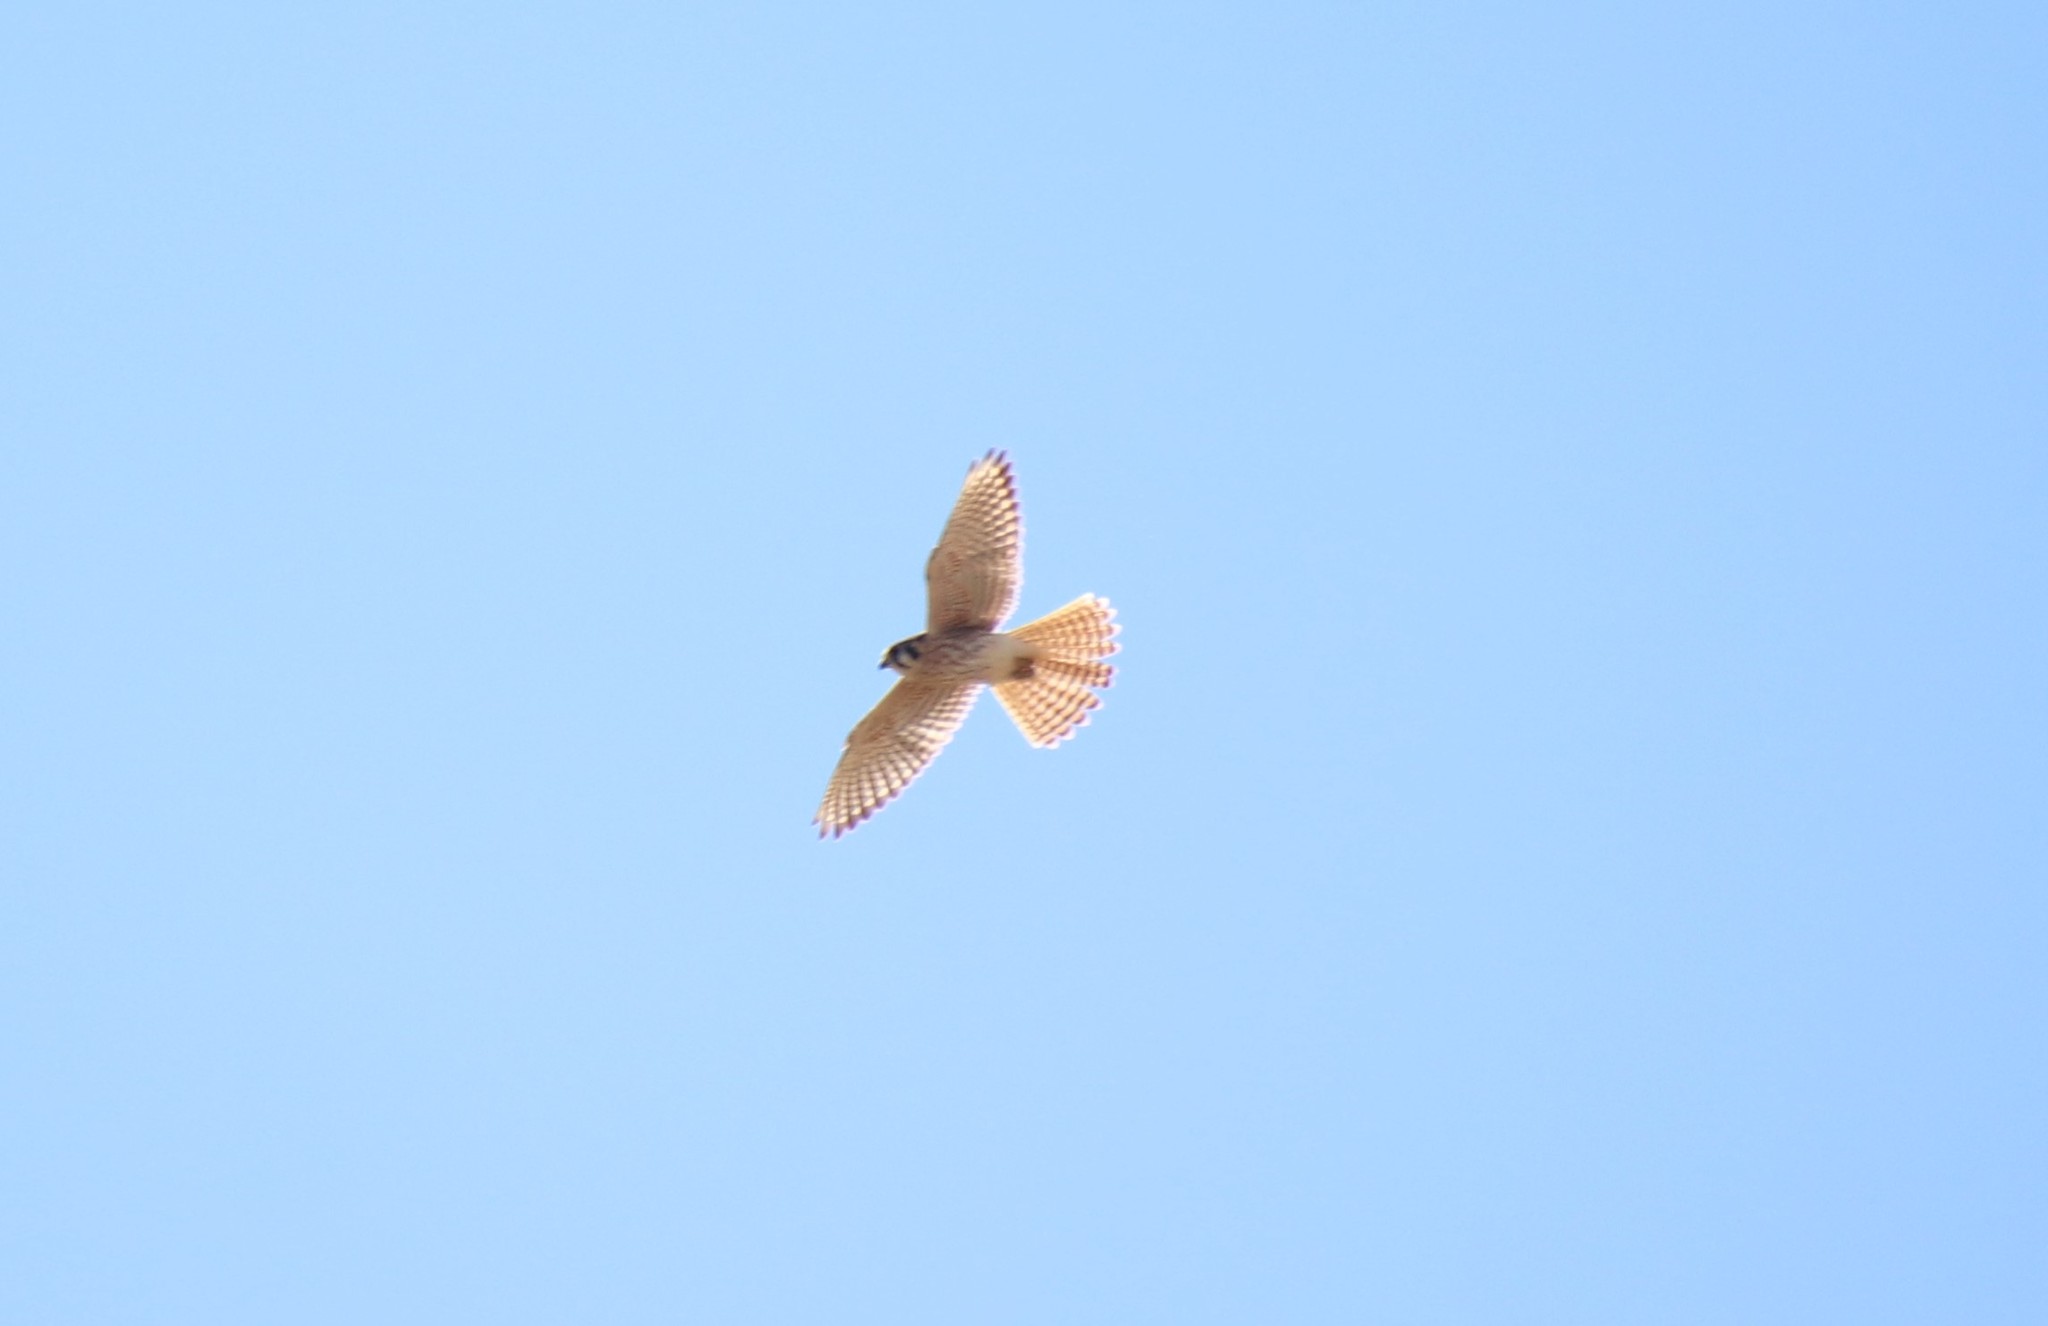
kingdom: Animalia
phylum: Chordata
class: Aves
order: Falconiformes
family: Falconidae
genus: Falco
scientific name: Falco sparverius
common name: American kestrel
